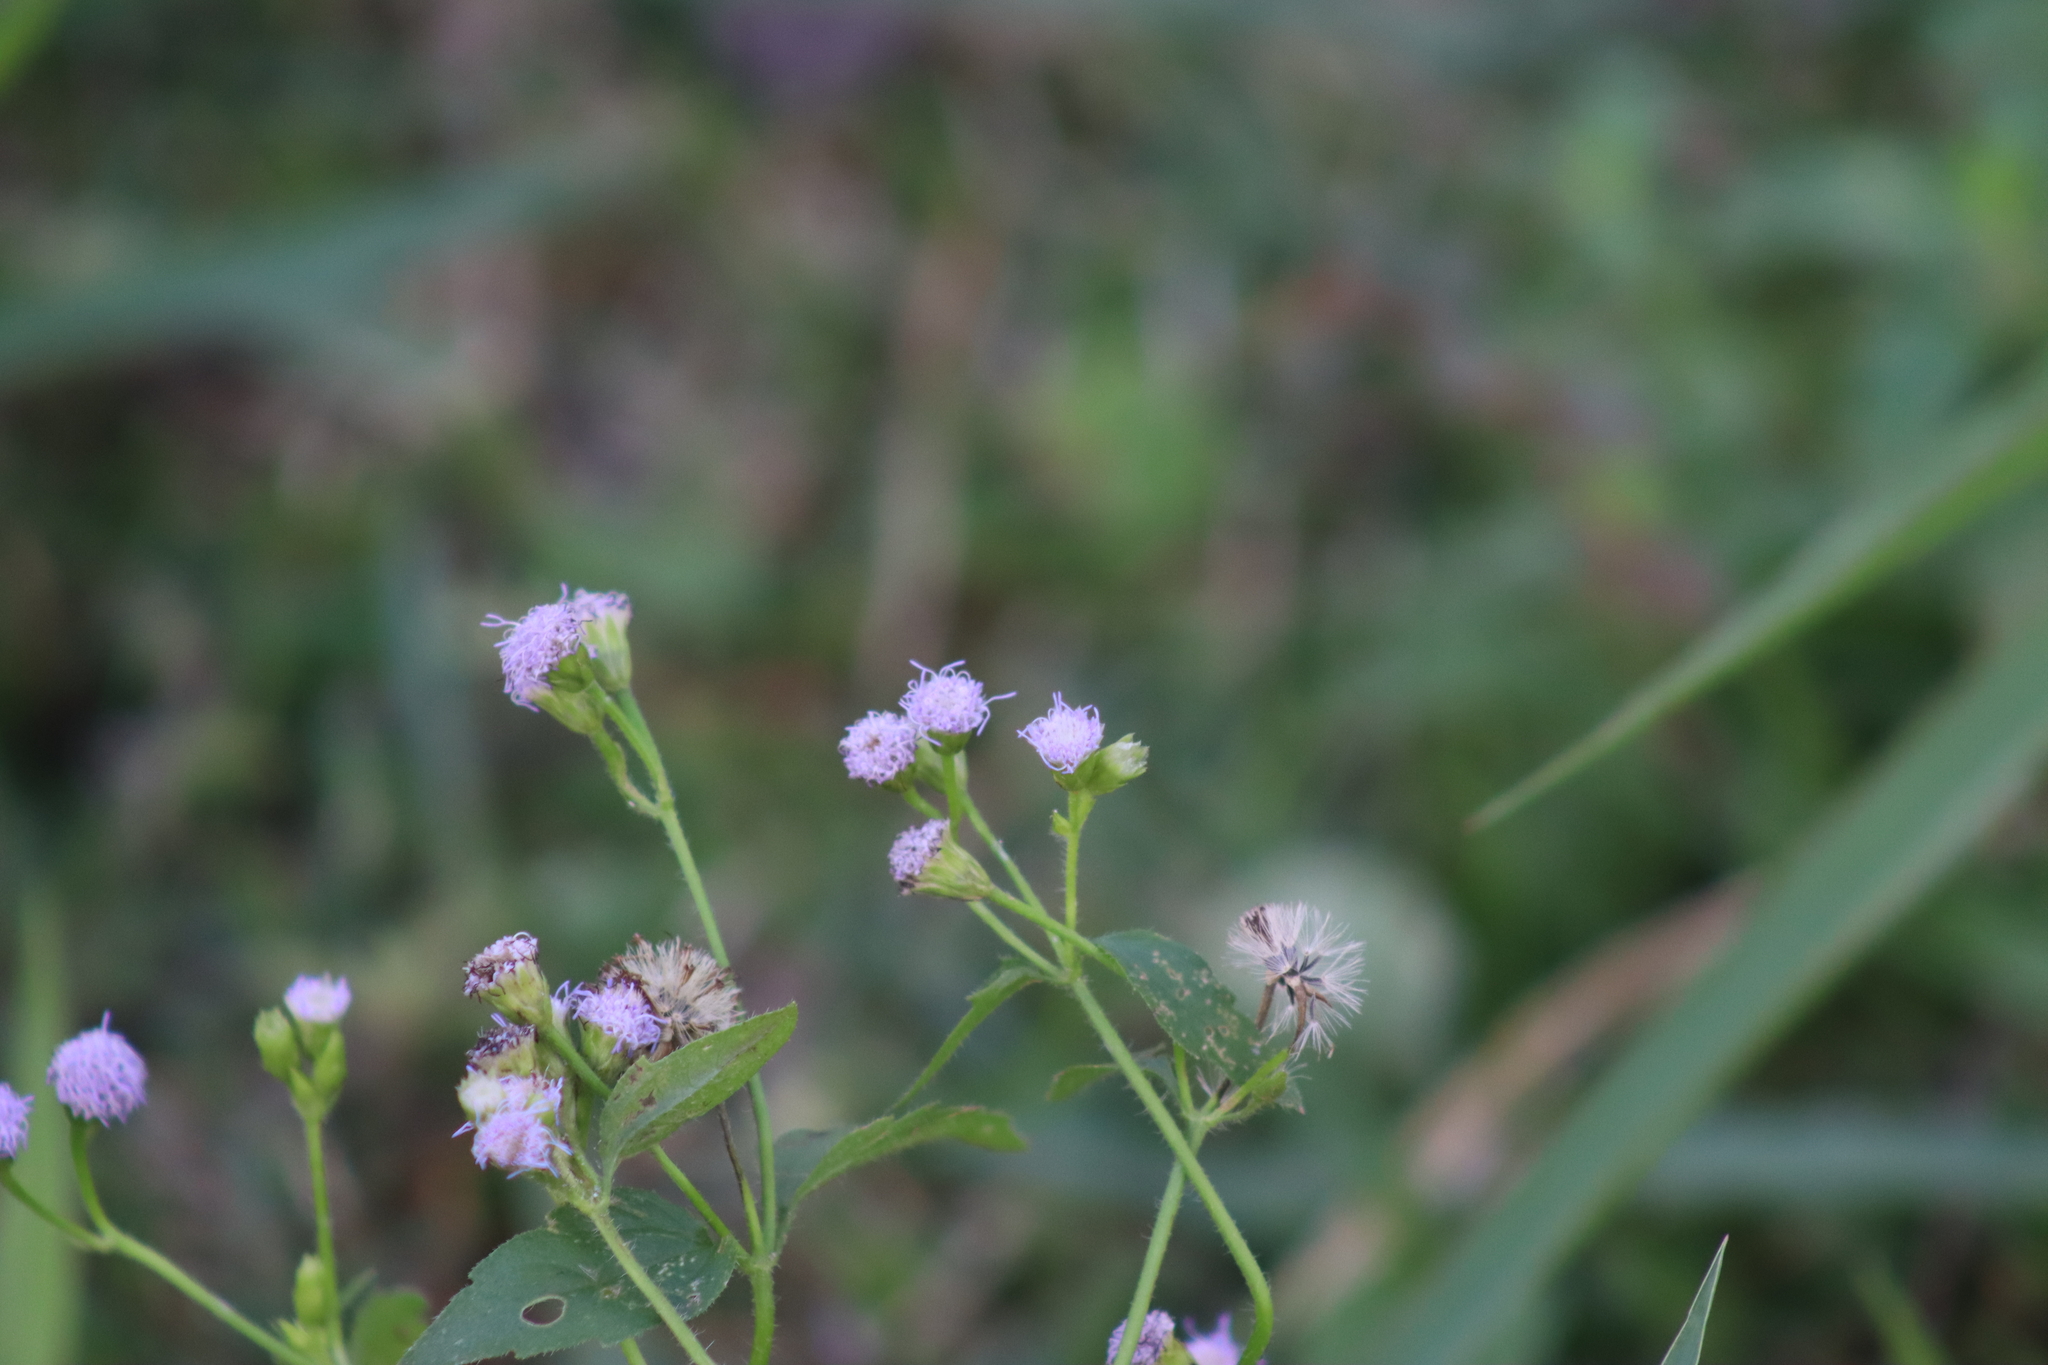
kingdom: Plantae
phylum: Tracheophyta
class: Magnoliopsida
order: Asterales
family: Asteraceae
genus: Praxelis
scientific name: Praxelis clematidea
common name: Praxelis
